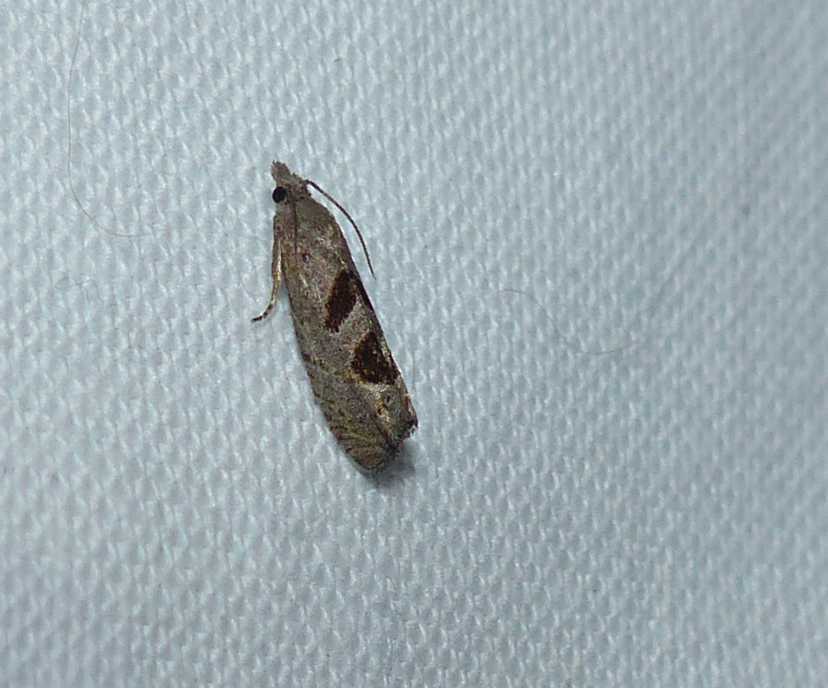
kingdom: Animalia
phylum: Arthropoda
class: Insecta
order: Lepidoptera
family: Tortricidae
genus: Eucosma
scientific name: Eucosma tomonana
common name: Aster-head eucosma moth
